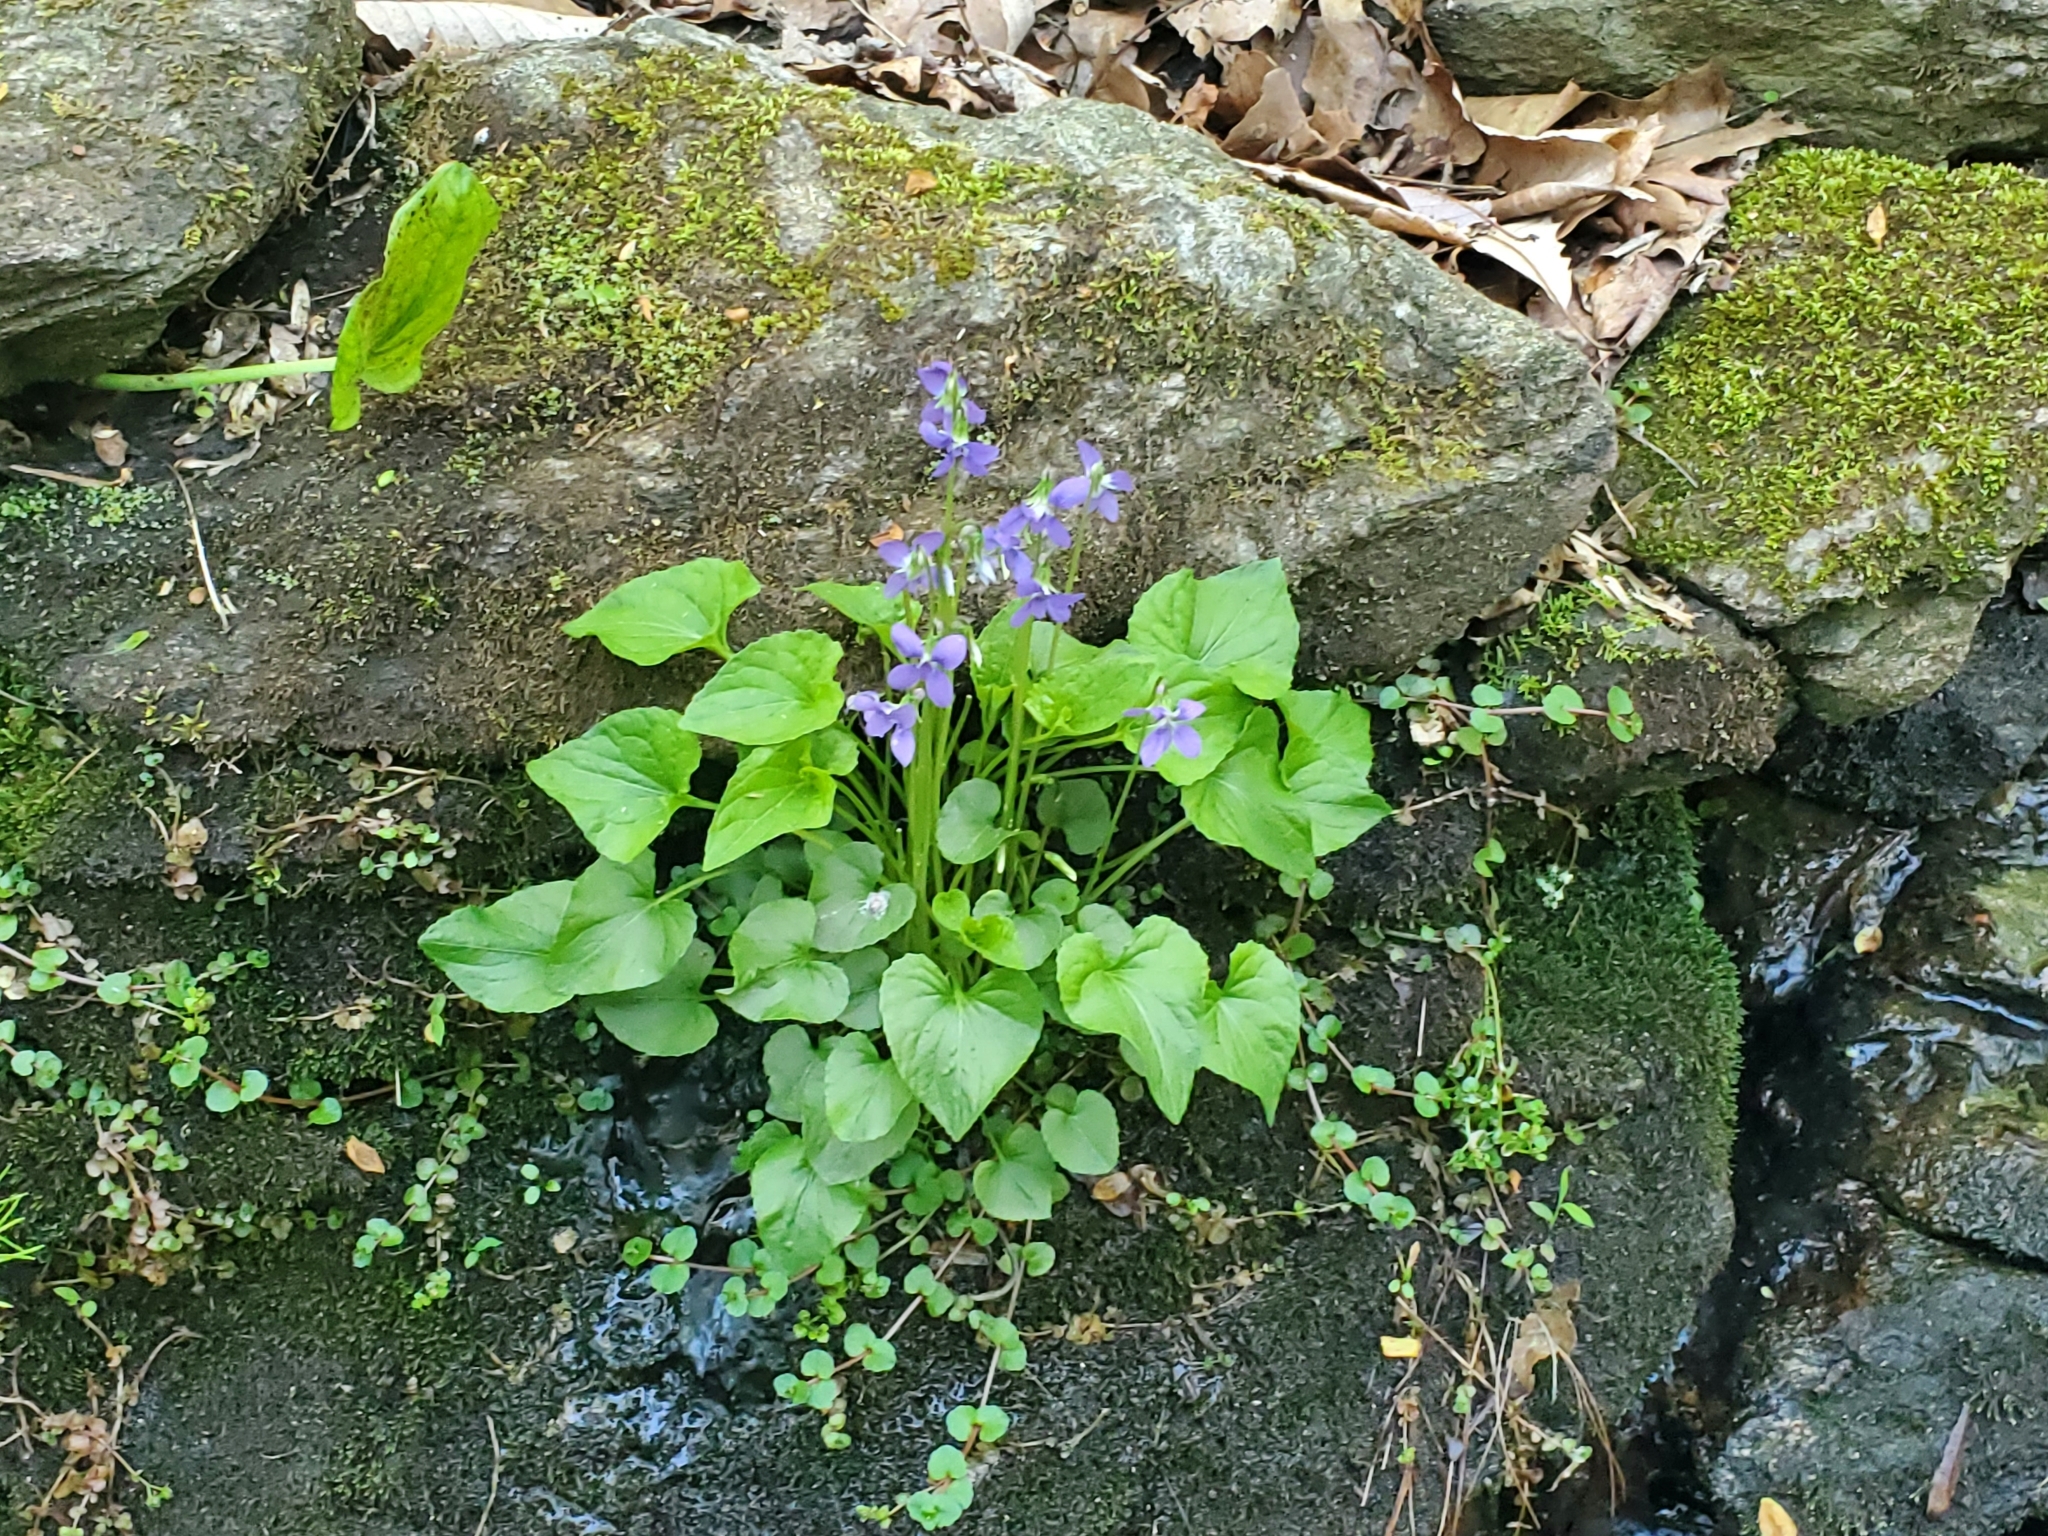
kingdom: Plantae
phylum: Tracheophyta
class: Magnoliopsida
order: Malpighiales
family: Violaceae
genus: Viola
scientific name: Viola cucullata
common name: Marsh blue violet
